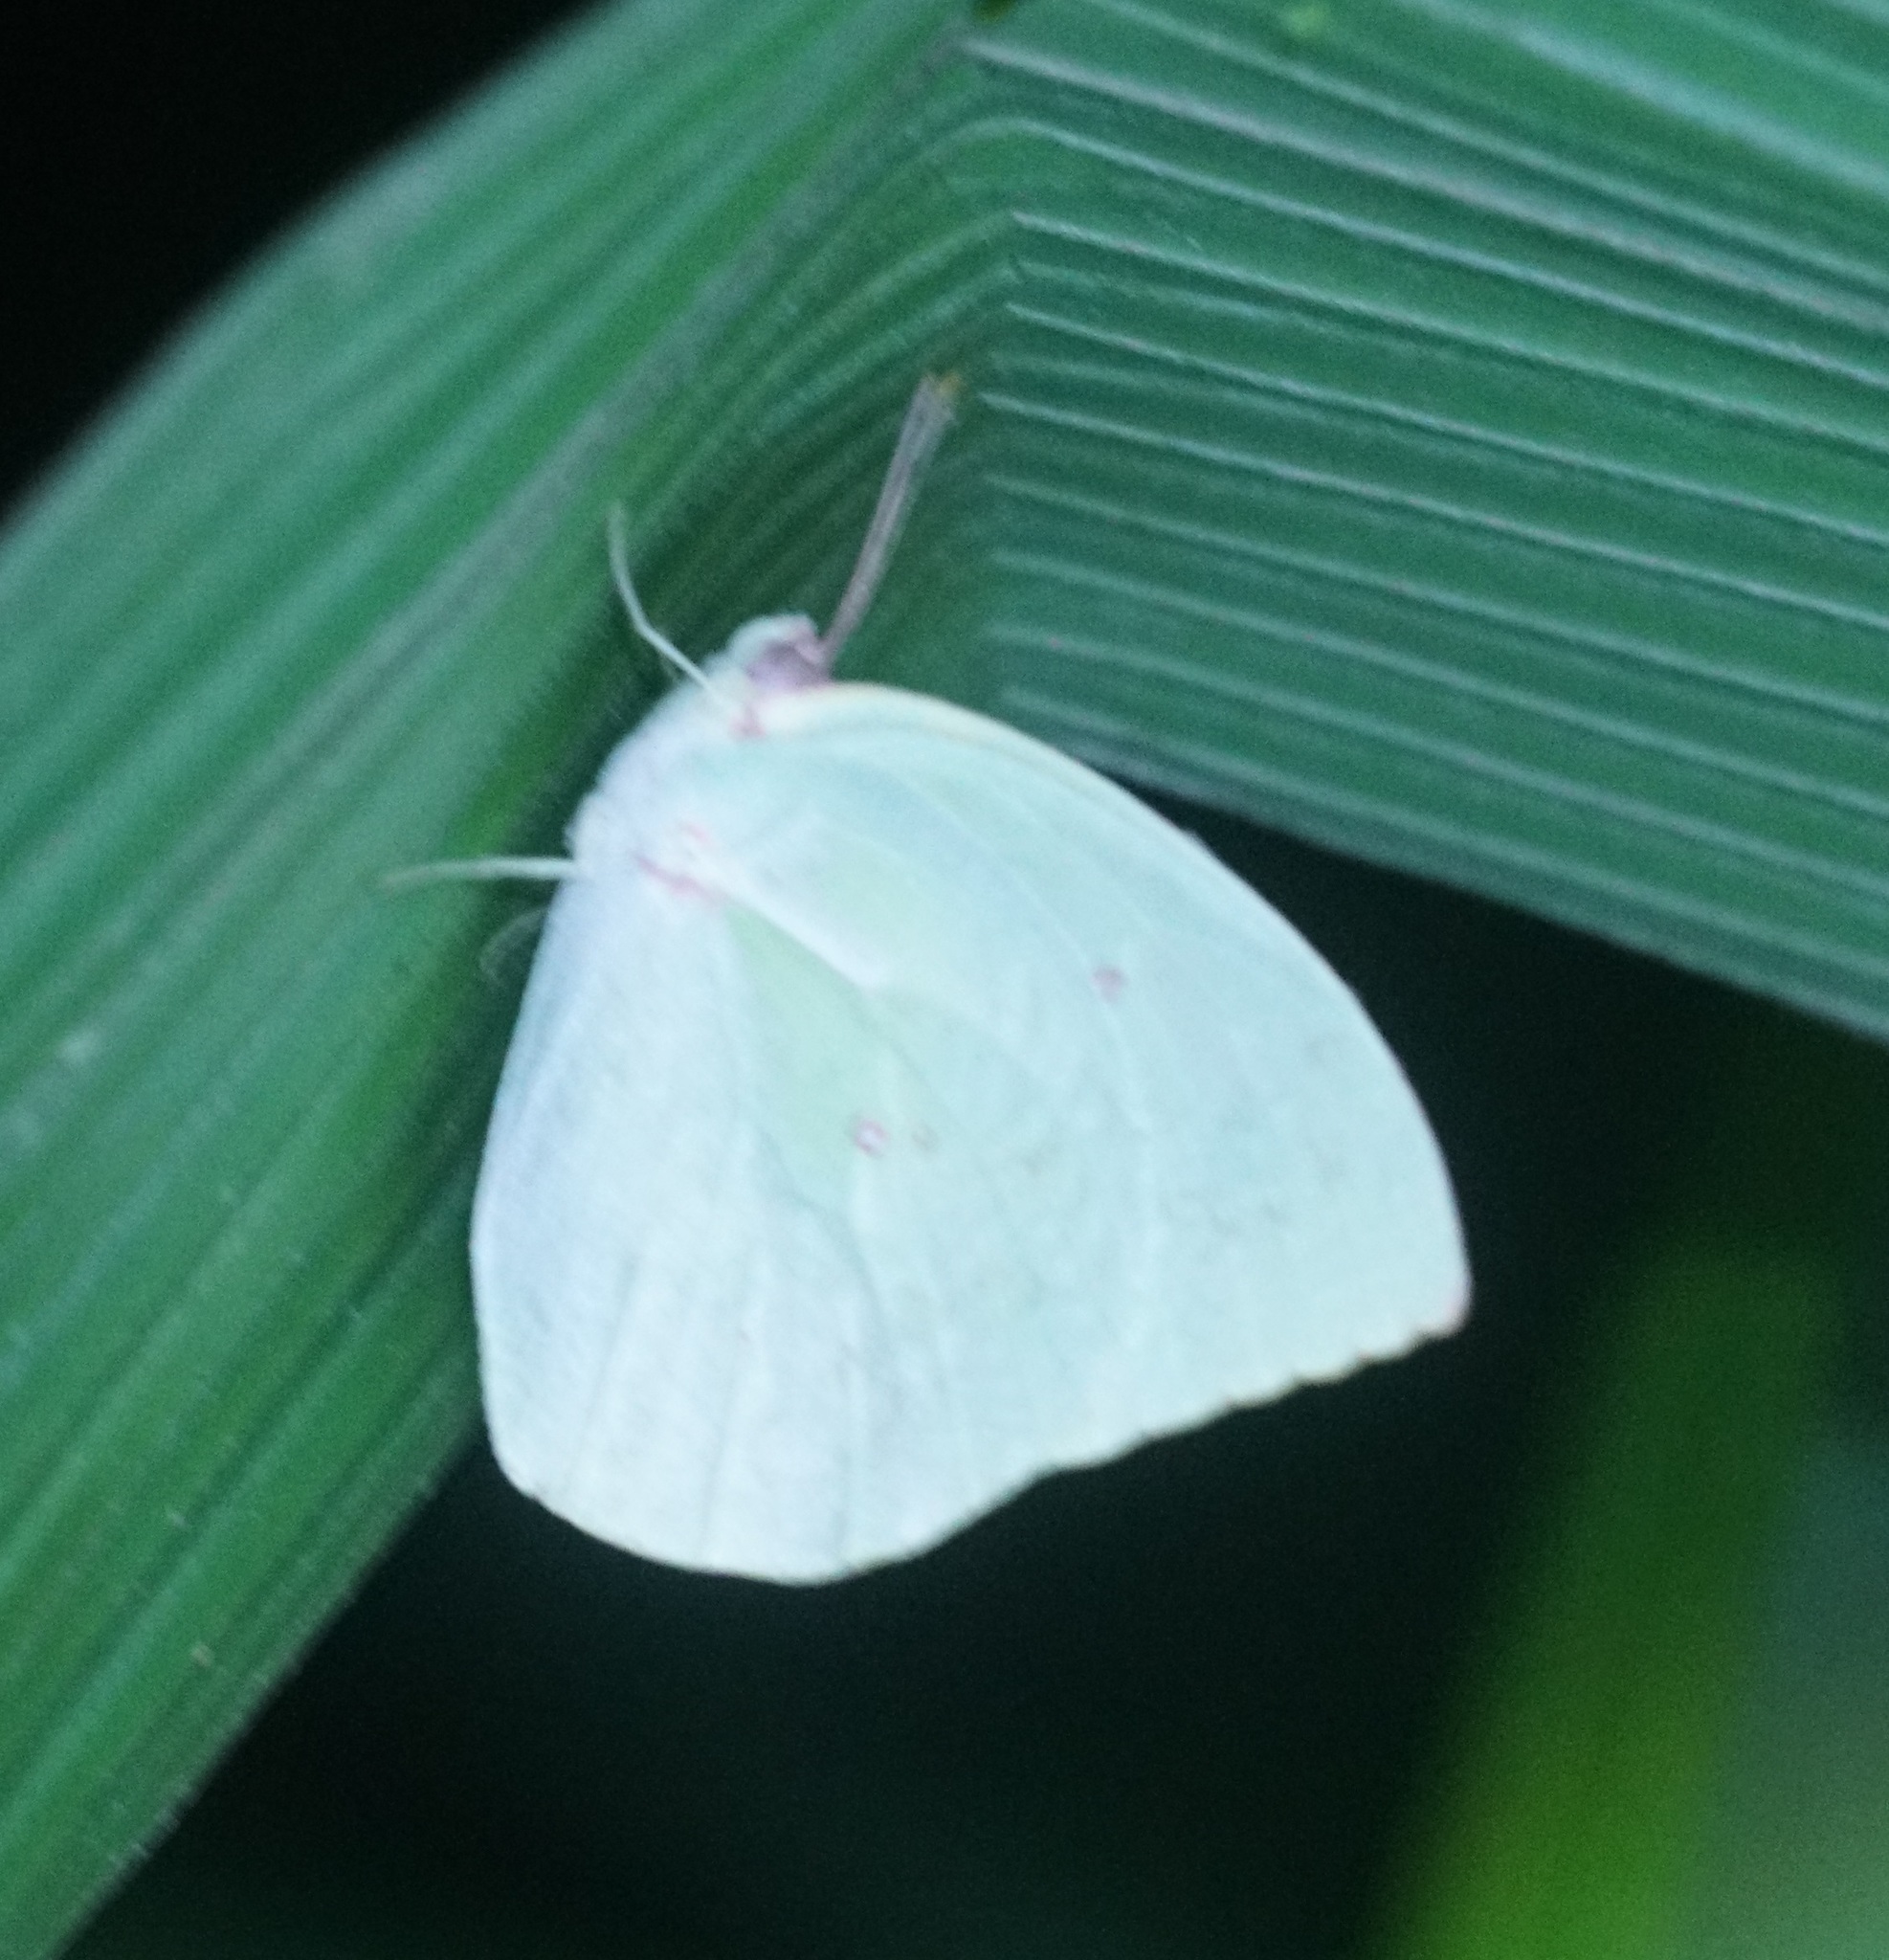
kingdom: Animalia
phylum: Arthropoda
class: Insecta
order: Lepidoptera
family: Pieridae
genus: Catopsilia
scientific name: Catopsilia pomona
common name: Common emigrant
